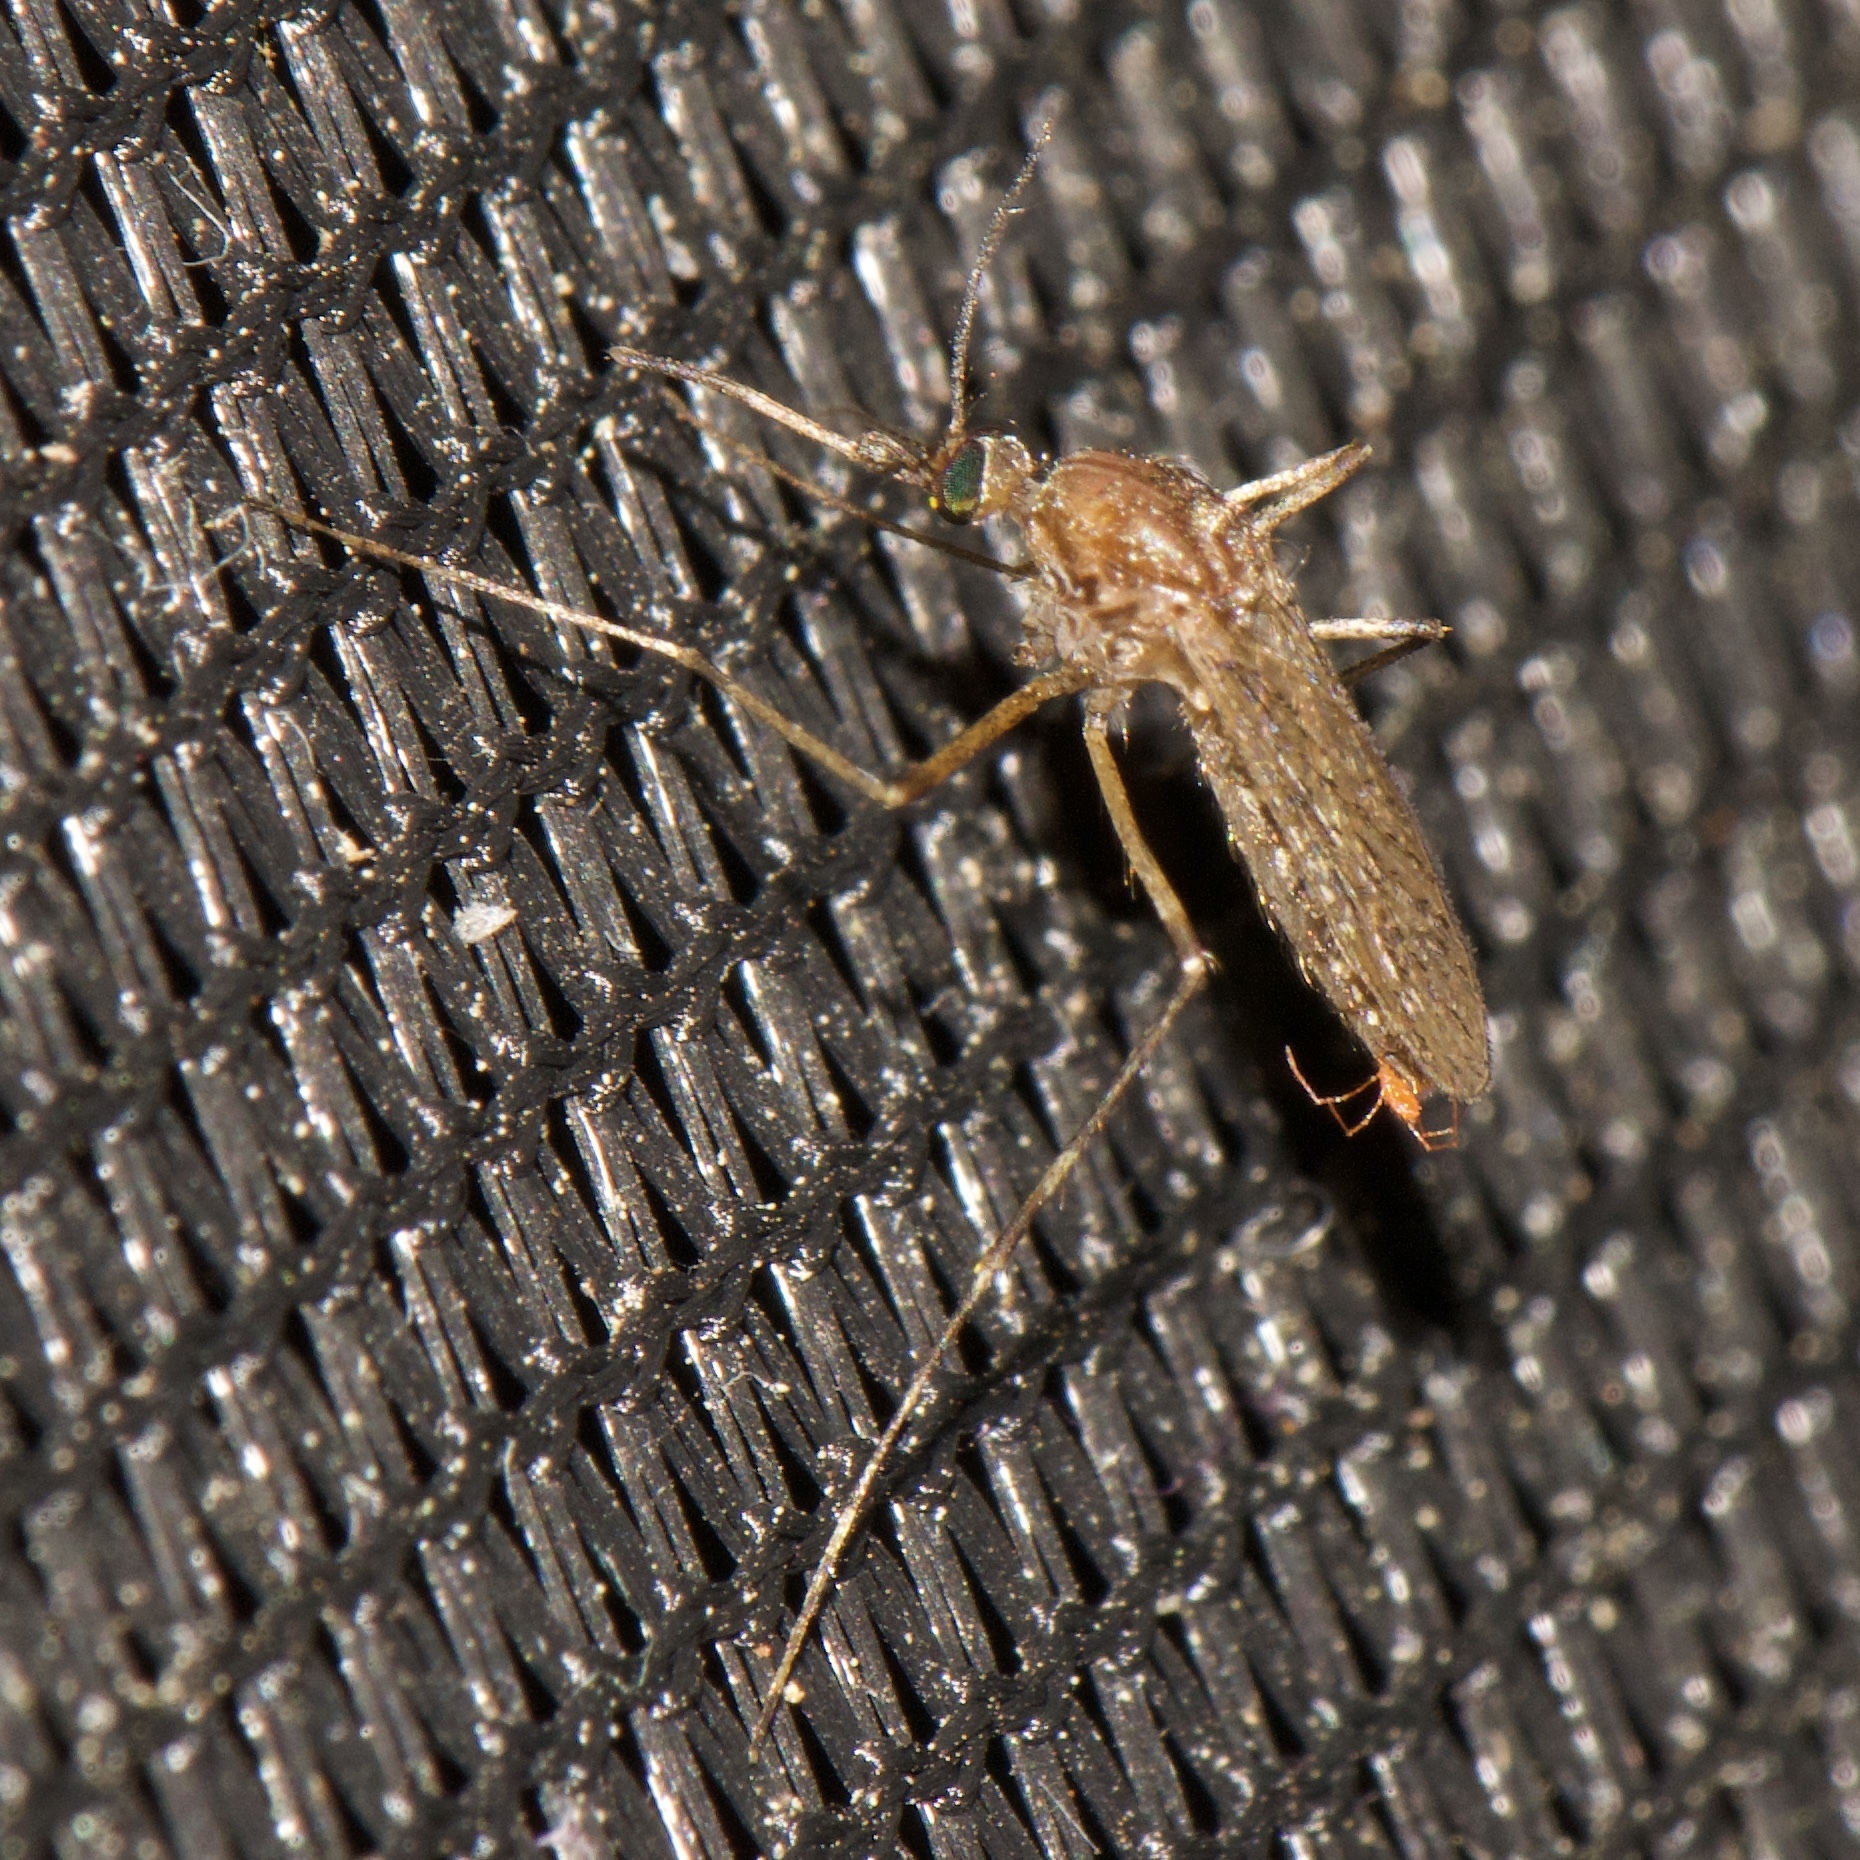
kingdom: Animalia
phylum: Arthropoda
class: Insecta
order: Diptera
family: Culicidae
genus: Coquillettidia
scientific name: Coquillettidia perturbans
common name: Cattail mosquito
